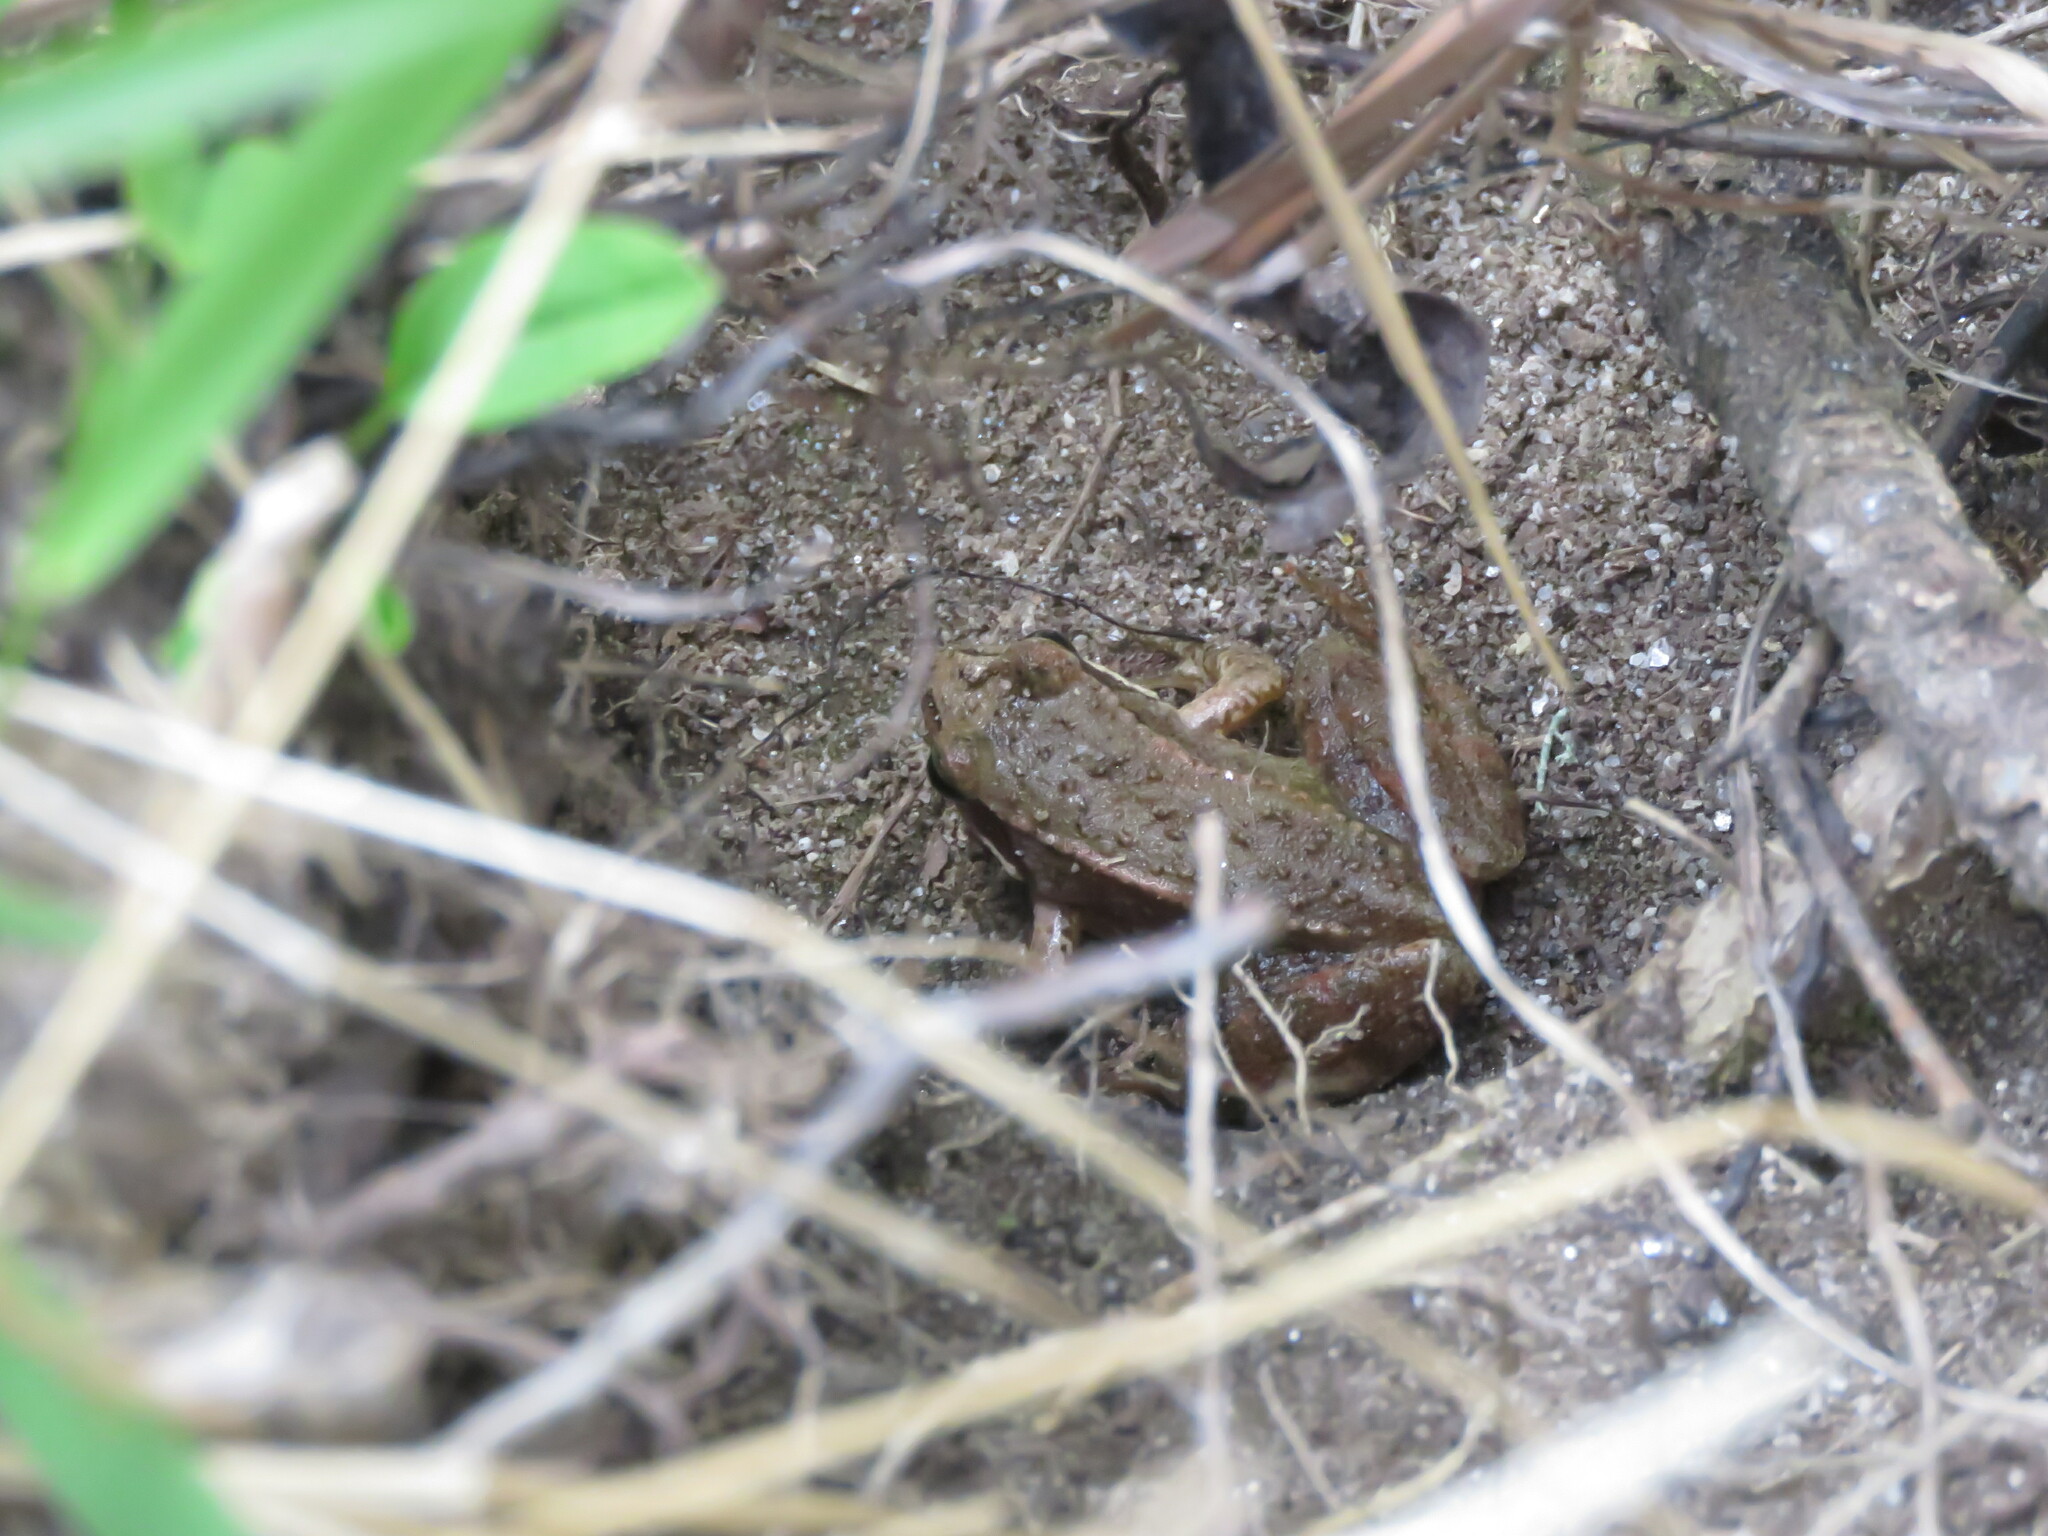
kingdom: Animalia
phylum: Chordata
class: Amphibia
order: Anura
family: Ranidae
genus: Rana
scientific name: Rana iberica
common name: Iberian frog
